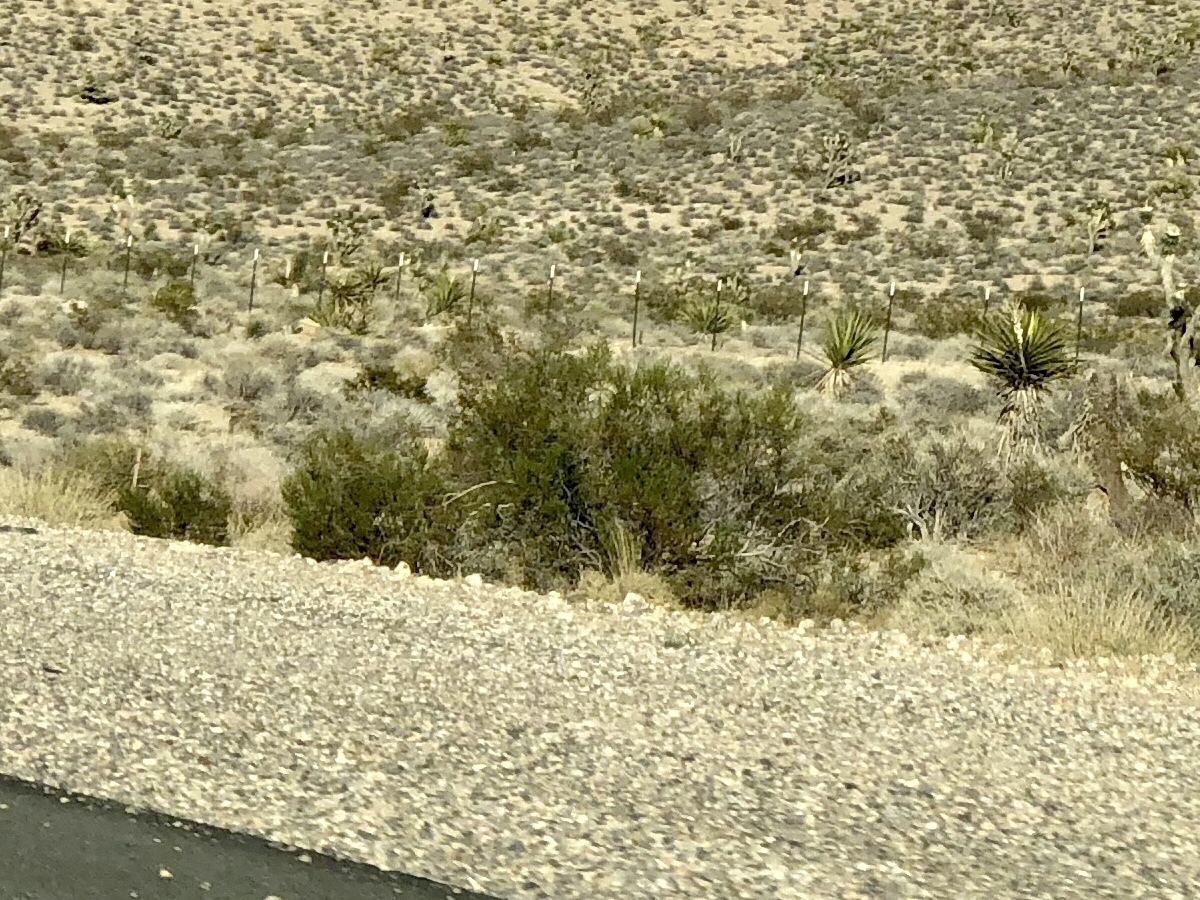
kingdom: Plantae
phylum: Tracheophyta
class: Magnoliopsida
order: Zygophyllales
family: Zygophyllaceae
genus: Larrea
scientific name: Larrea tridentata
